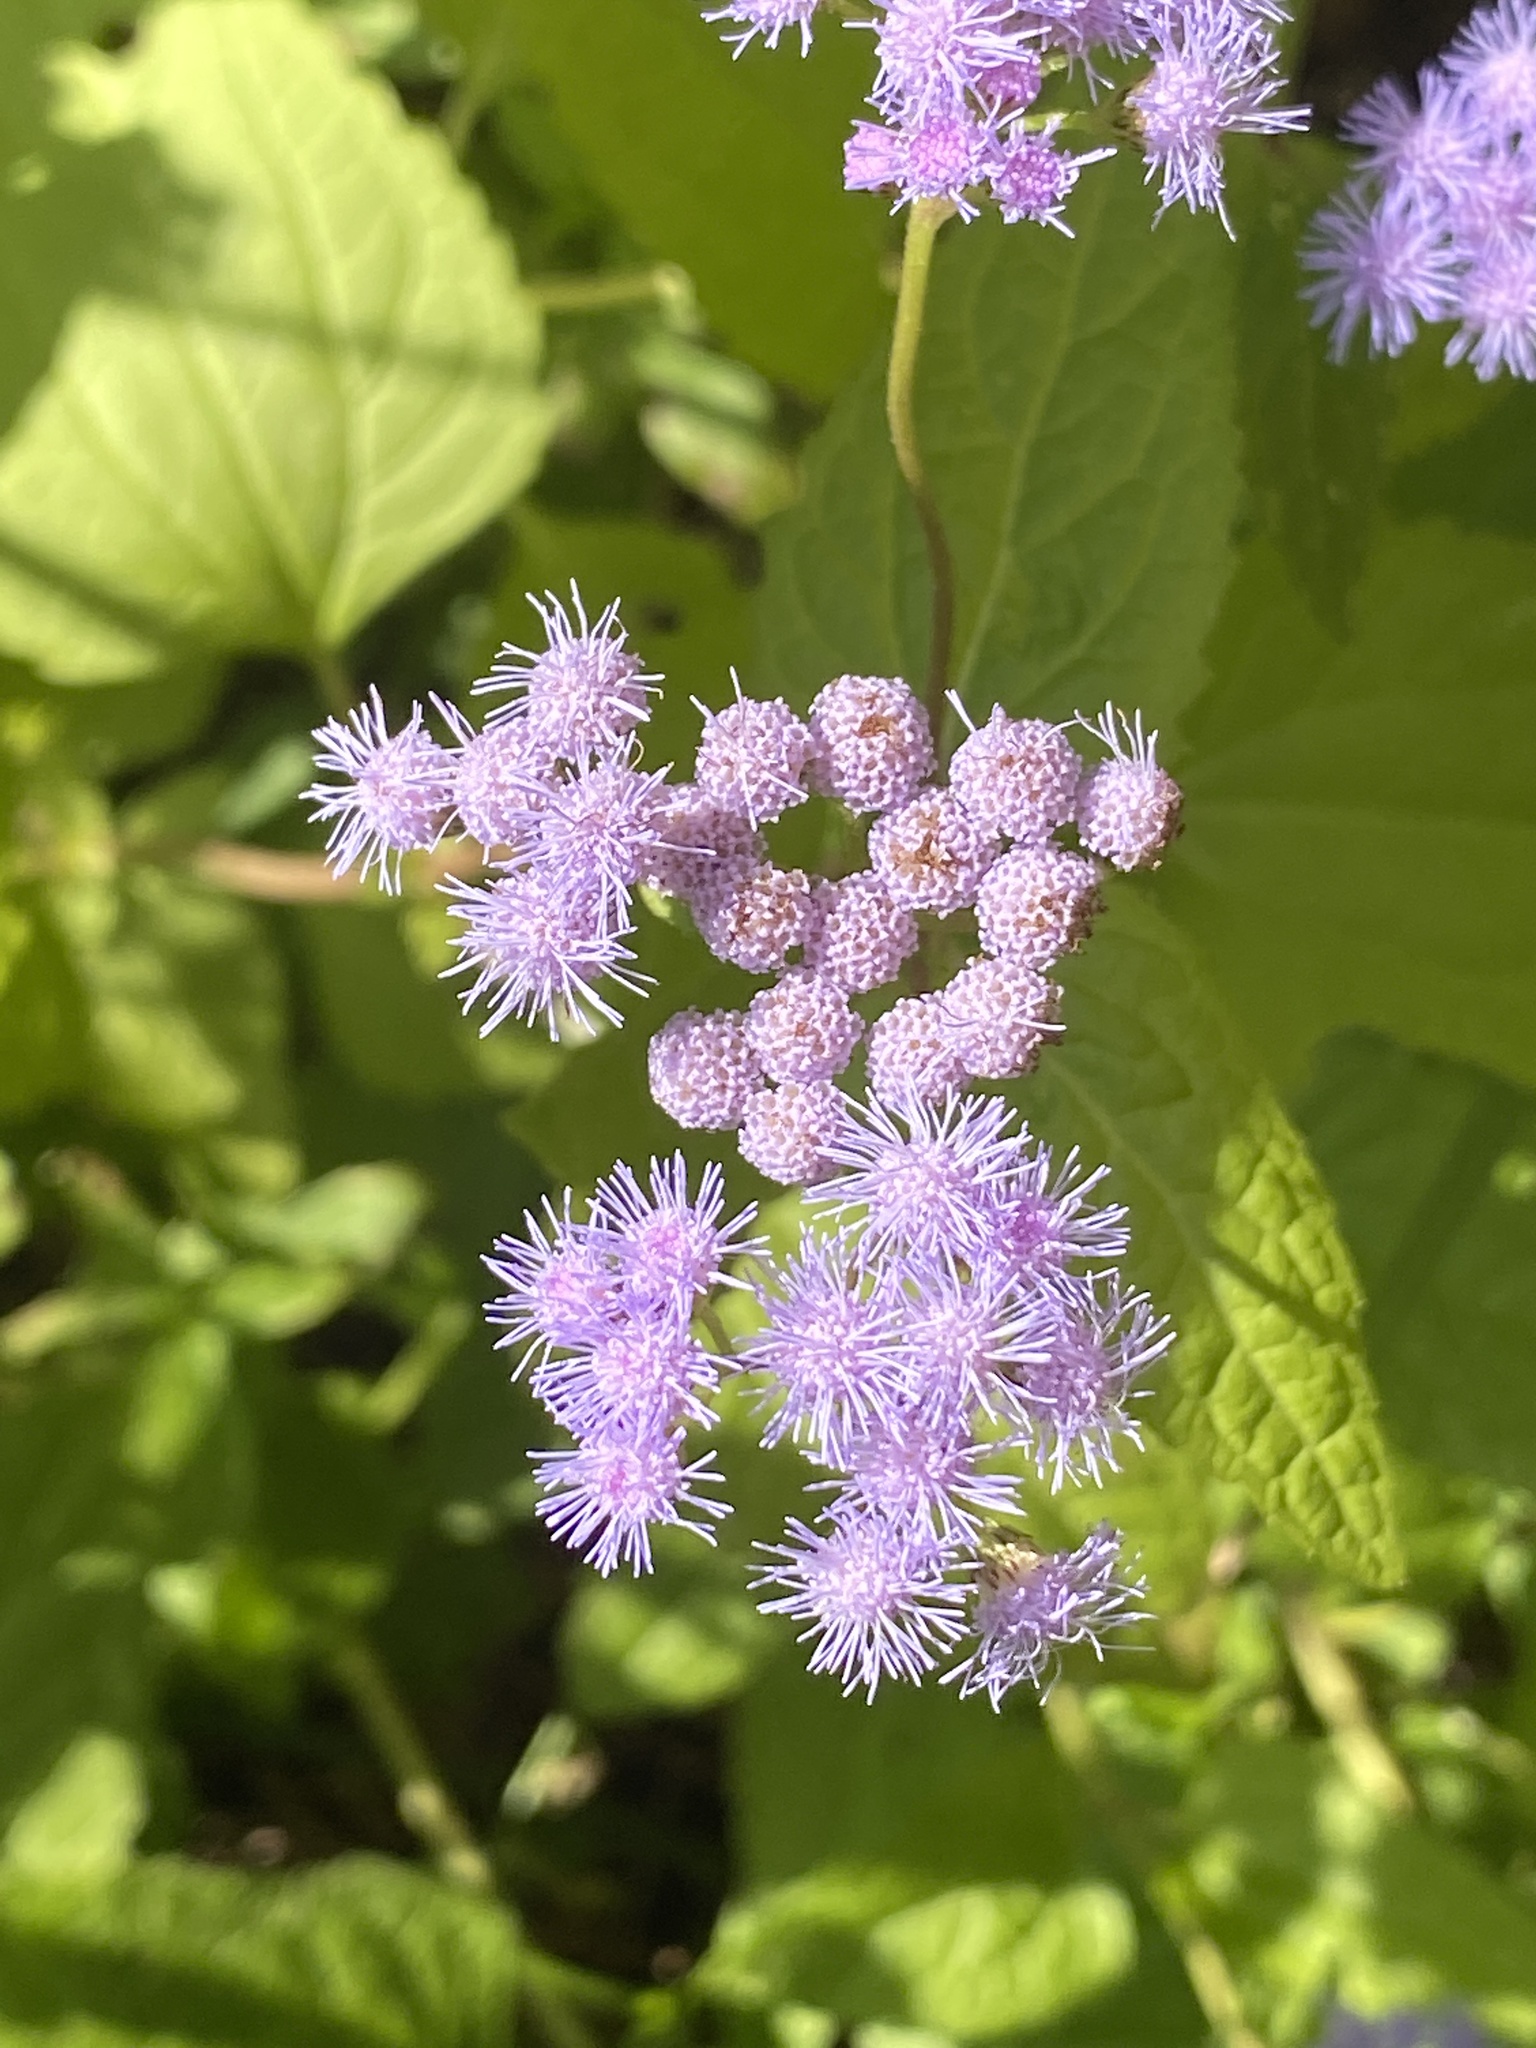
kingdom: Plantae
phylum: Tracheophyta
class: Magnoliopsida
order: Asterales
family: Asteraceae
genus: Conoclinium
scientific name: Conoclinium coelestinum
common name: Blue mistflower
